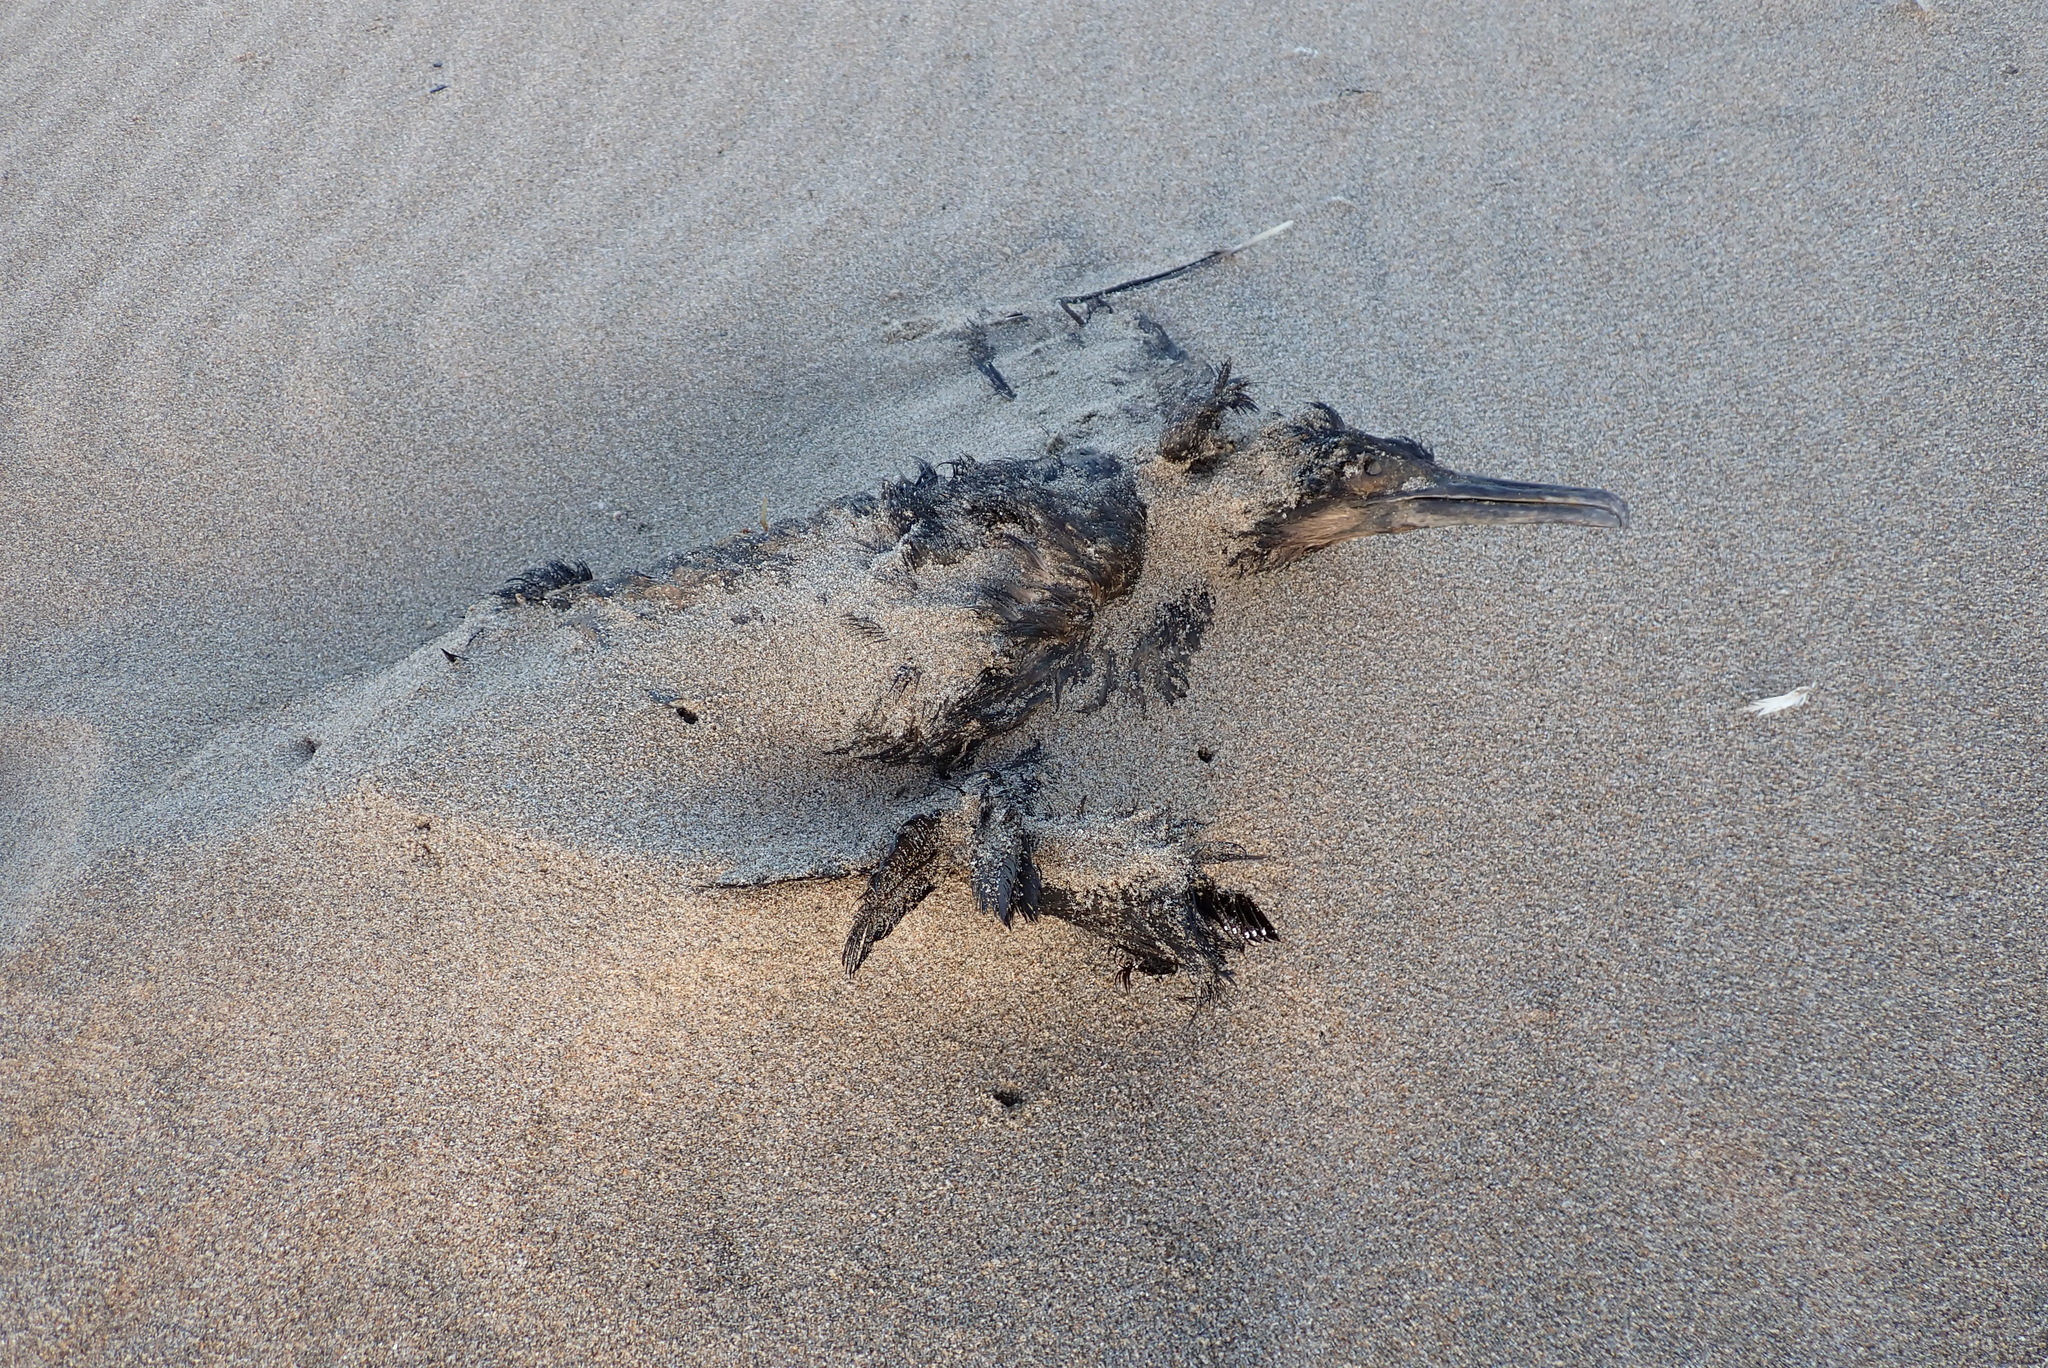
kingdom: Animalia
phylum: Chordata
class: Aves
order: Suliformes
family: Phalacrocoracidae
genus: Urile
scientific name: Urile penicillatus
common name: Brandt's cormorant
